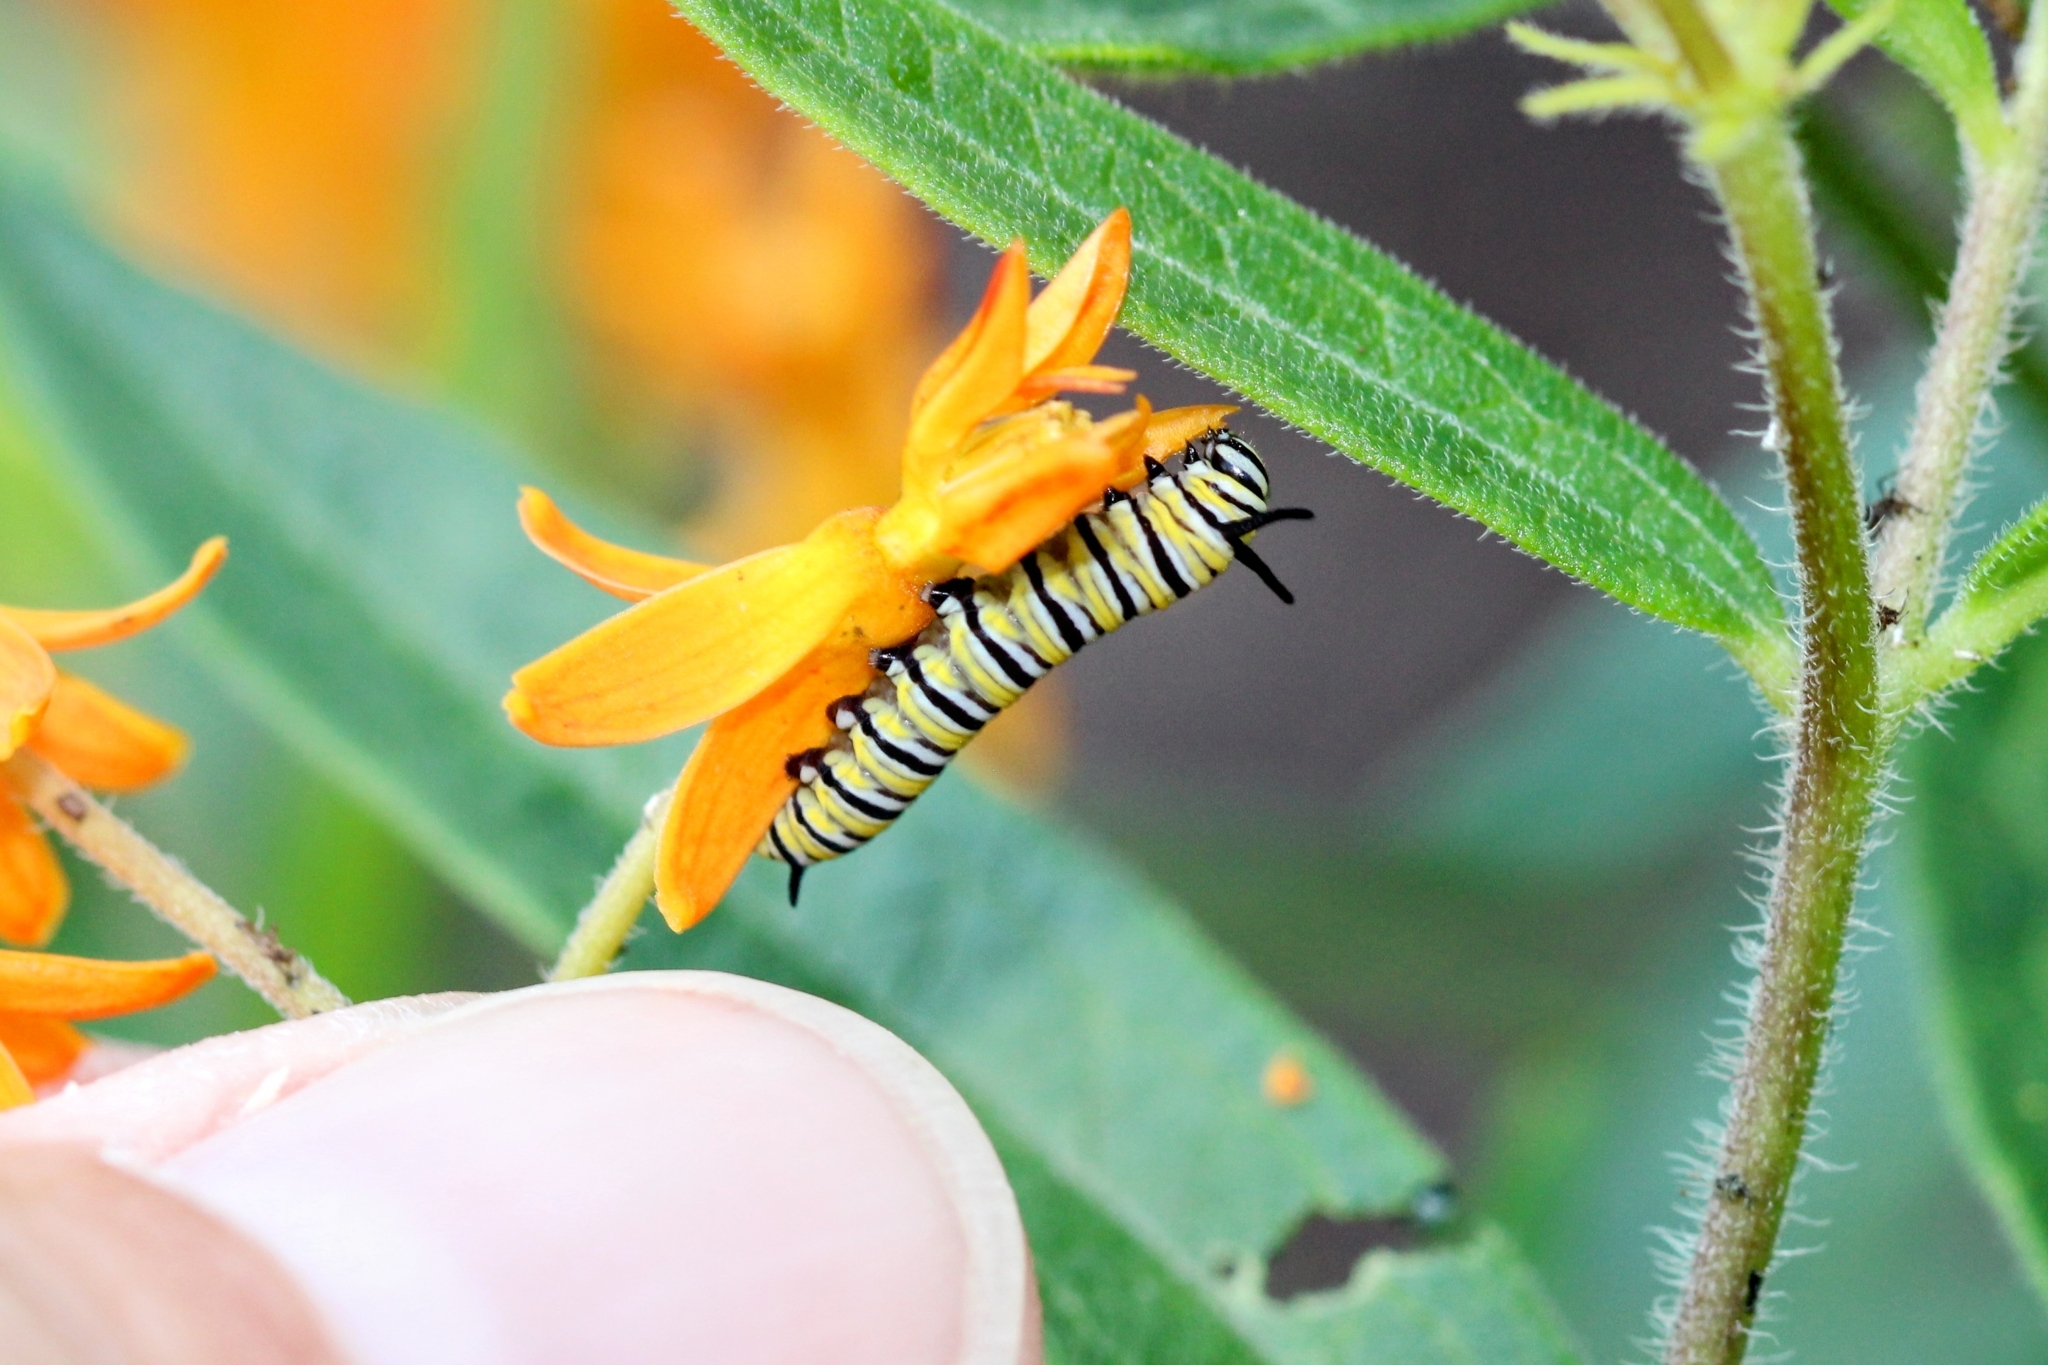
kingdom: Animalia
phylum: Arthropoda
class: Insecta
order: Lepidoptera
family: Nymphalidae
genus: Danaus
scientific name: Danaus plexippus
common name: Monarch
